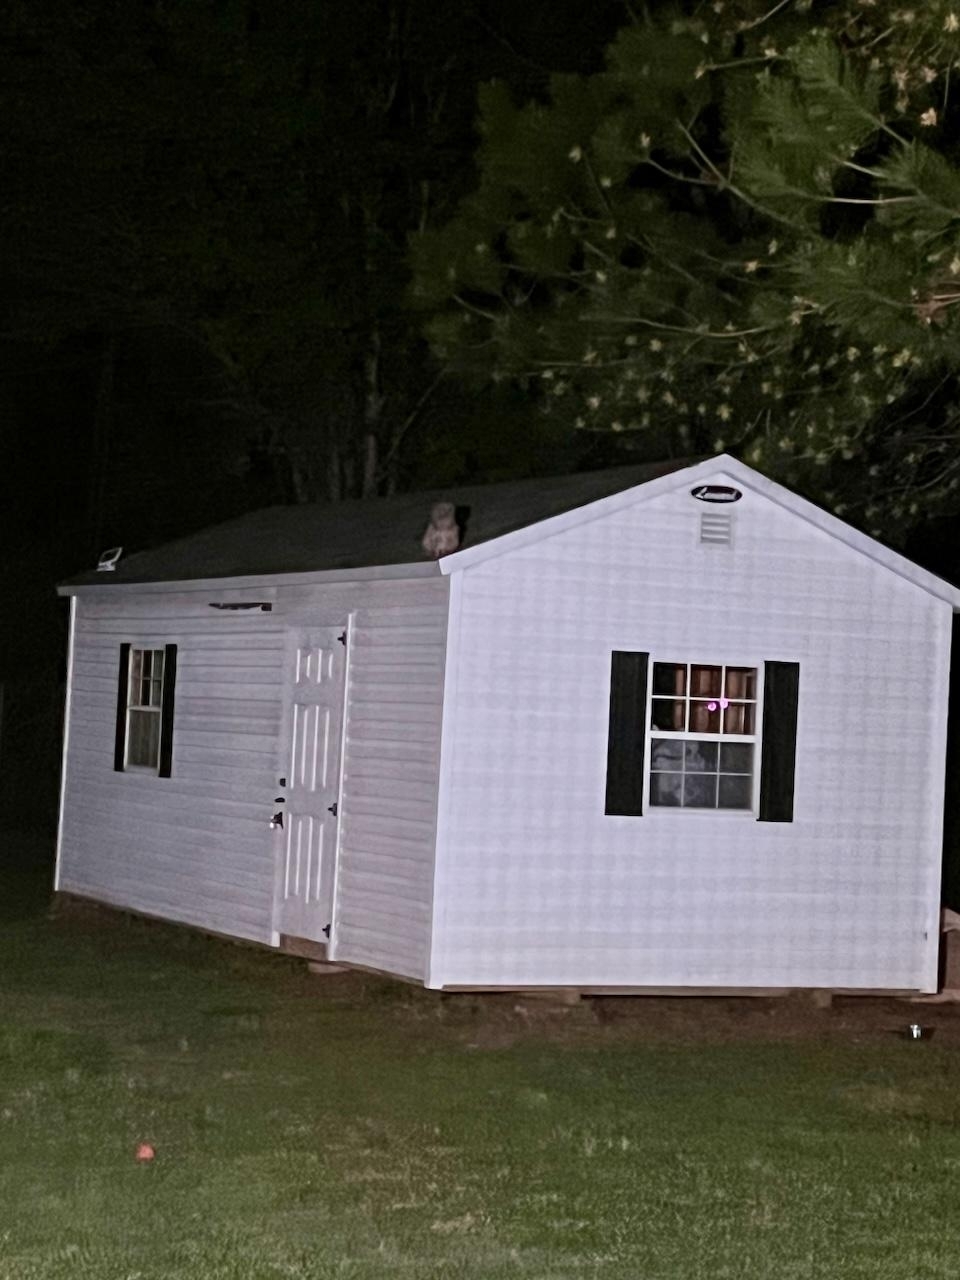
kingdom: Animalia
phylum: Chordata
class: Aves
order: Strigiformes
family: Strigidae
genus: Strix
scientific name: Strix varia
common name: Barred owl
